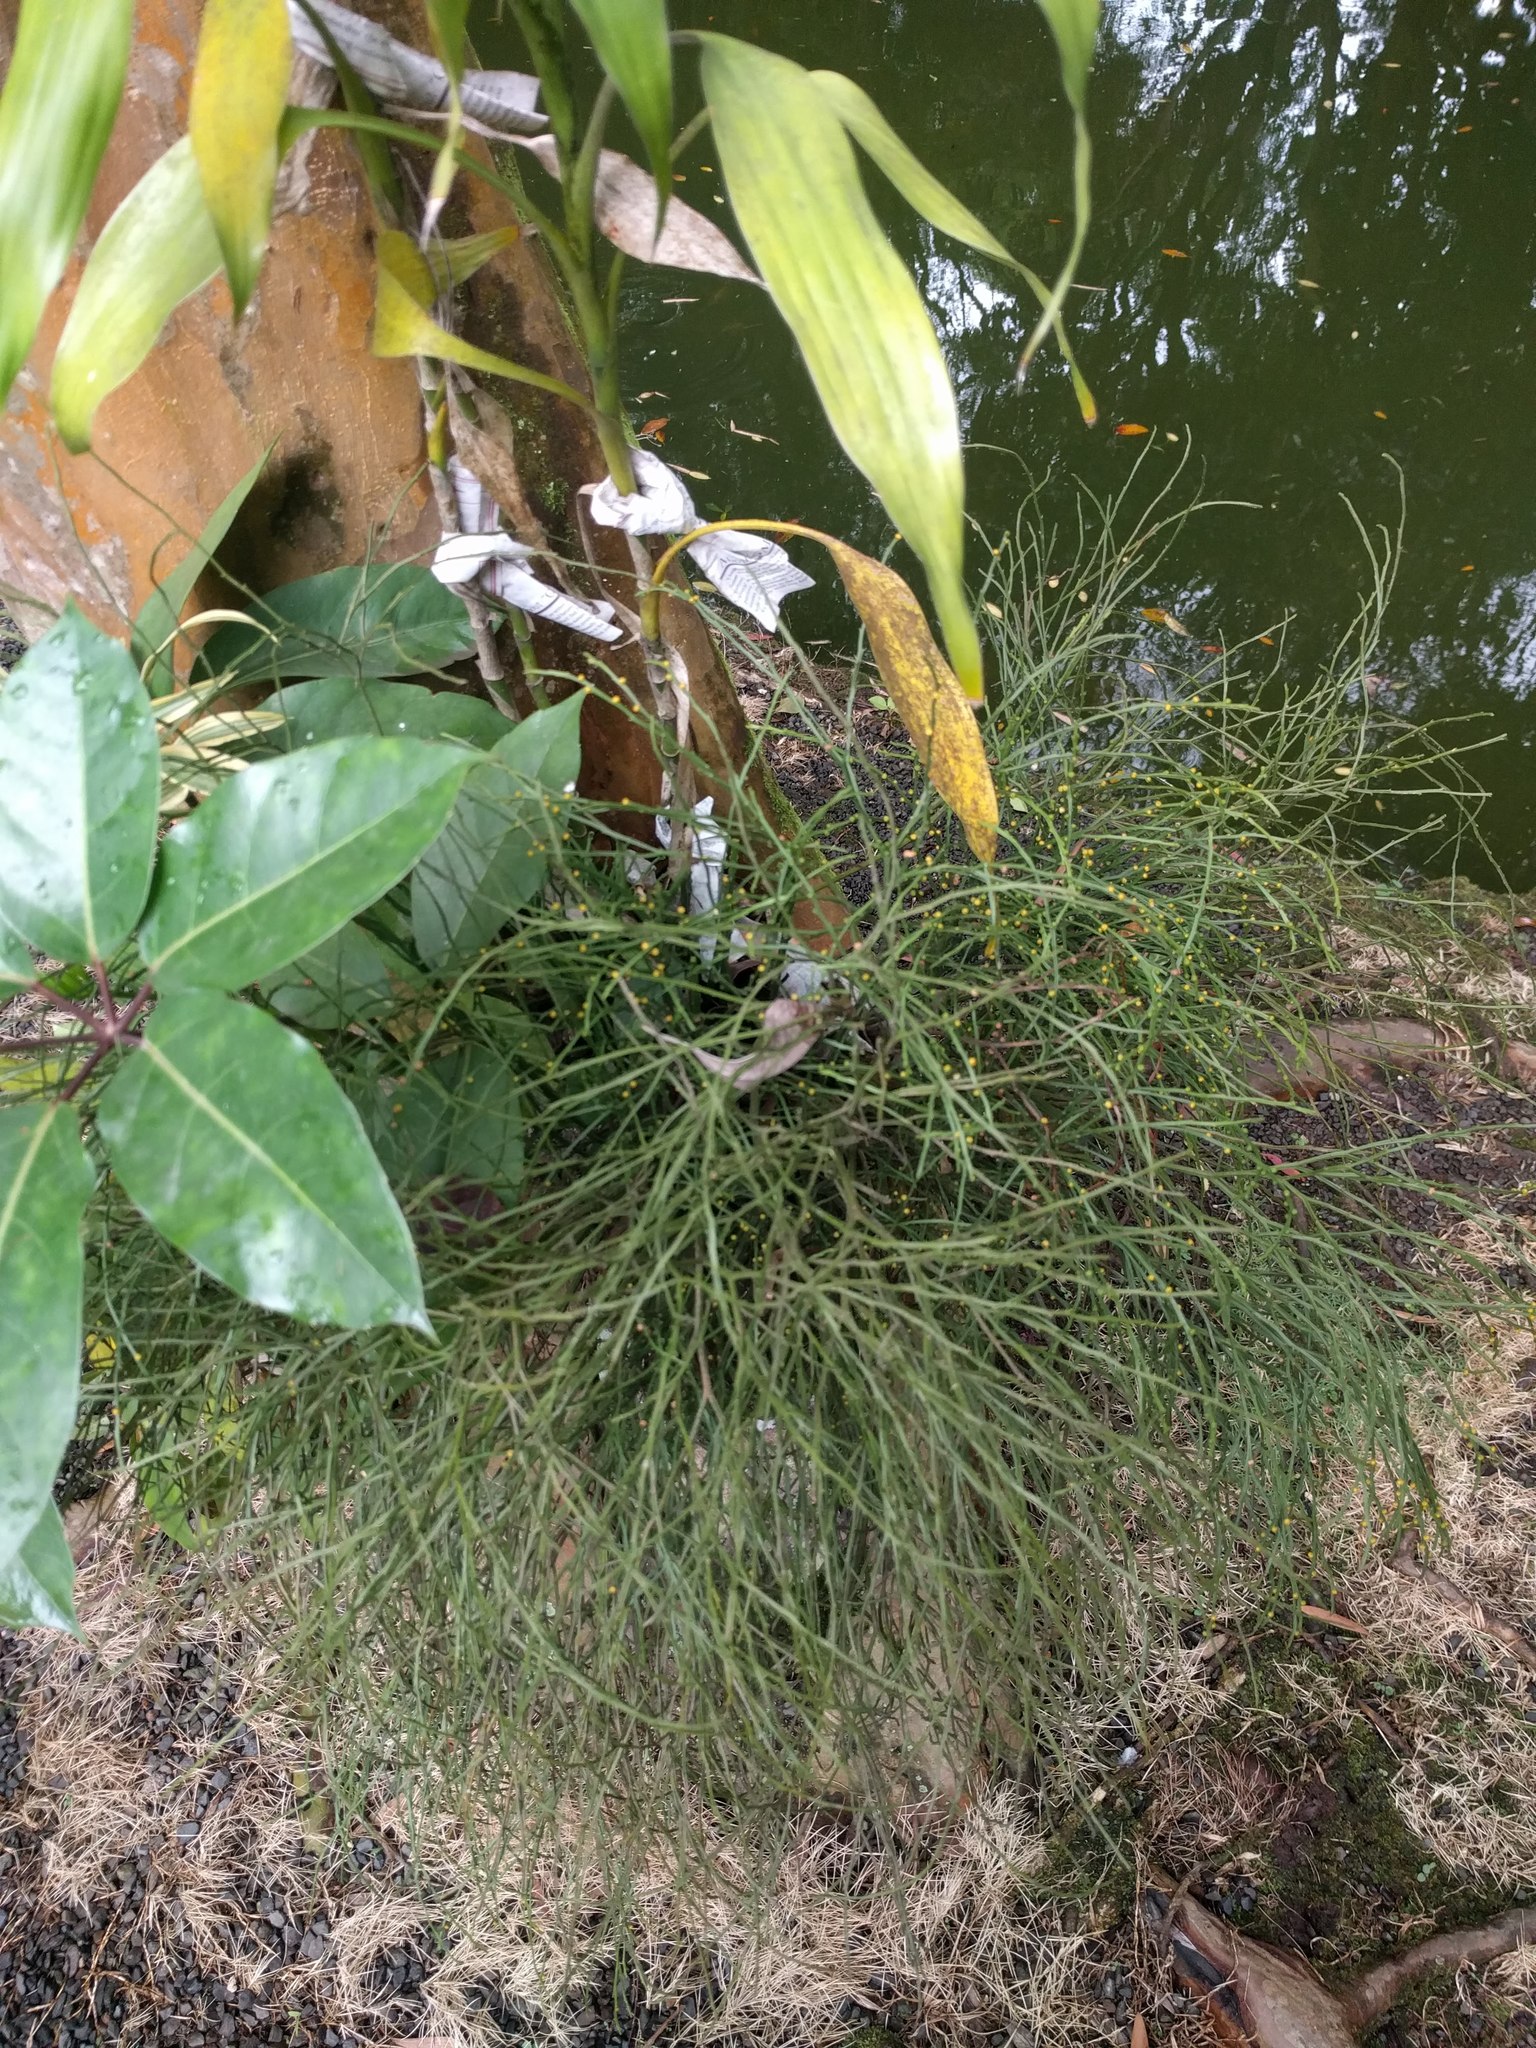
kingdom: Plantae
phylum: Tracheophyta
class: Polypodiopsida
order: Psilotales
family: Psilotaceae
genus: Psilotum
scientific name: Psilotum nudum
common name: Skeleton fork fern
